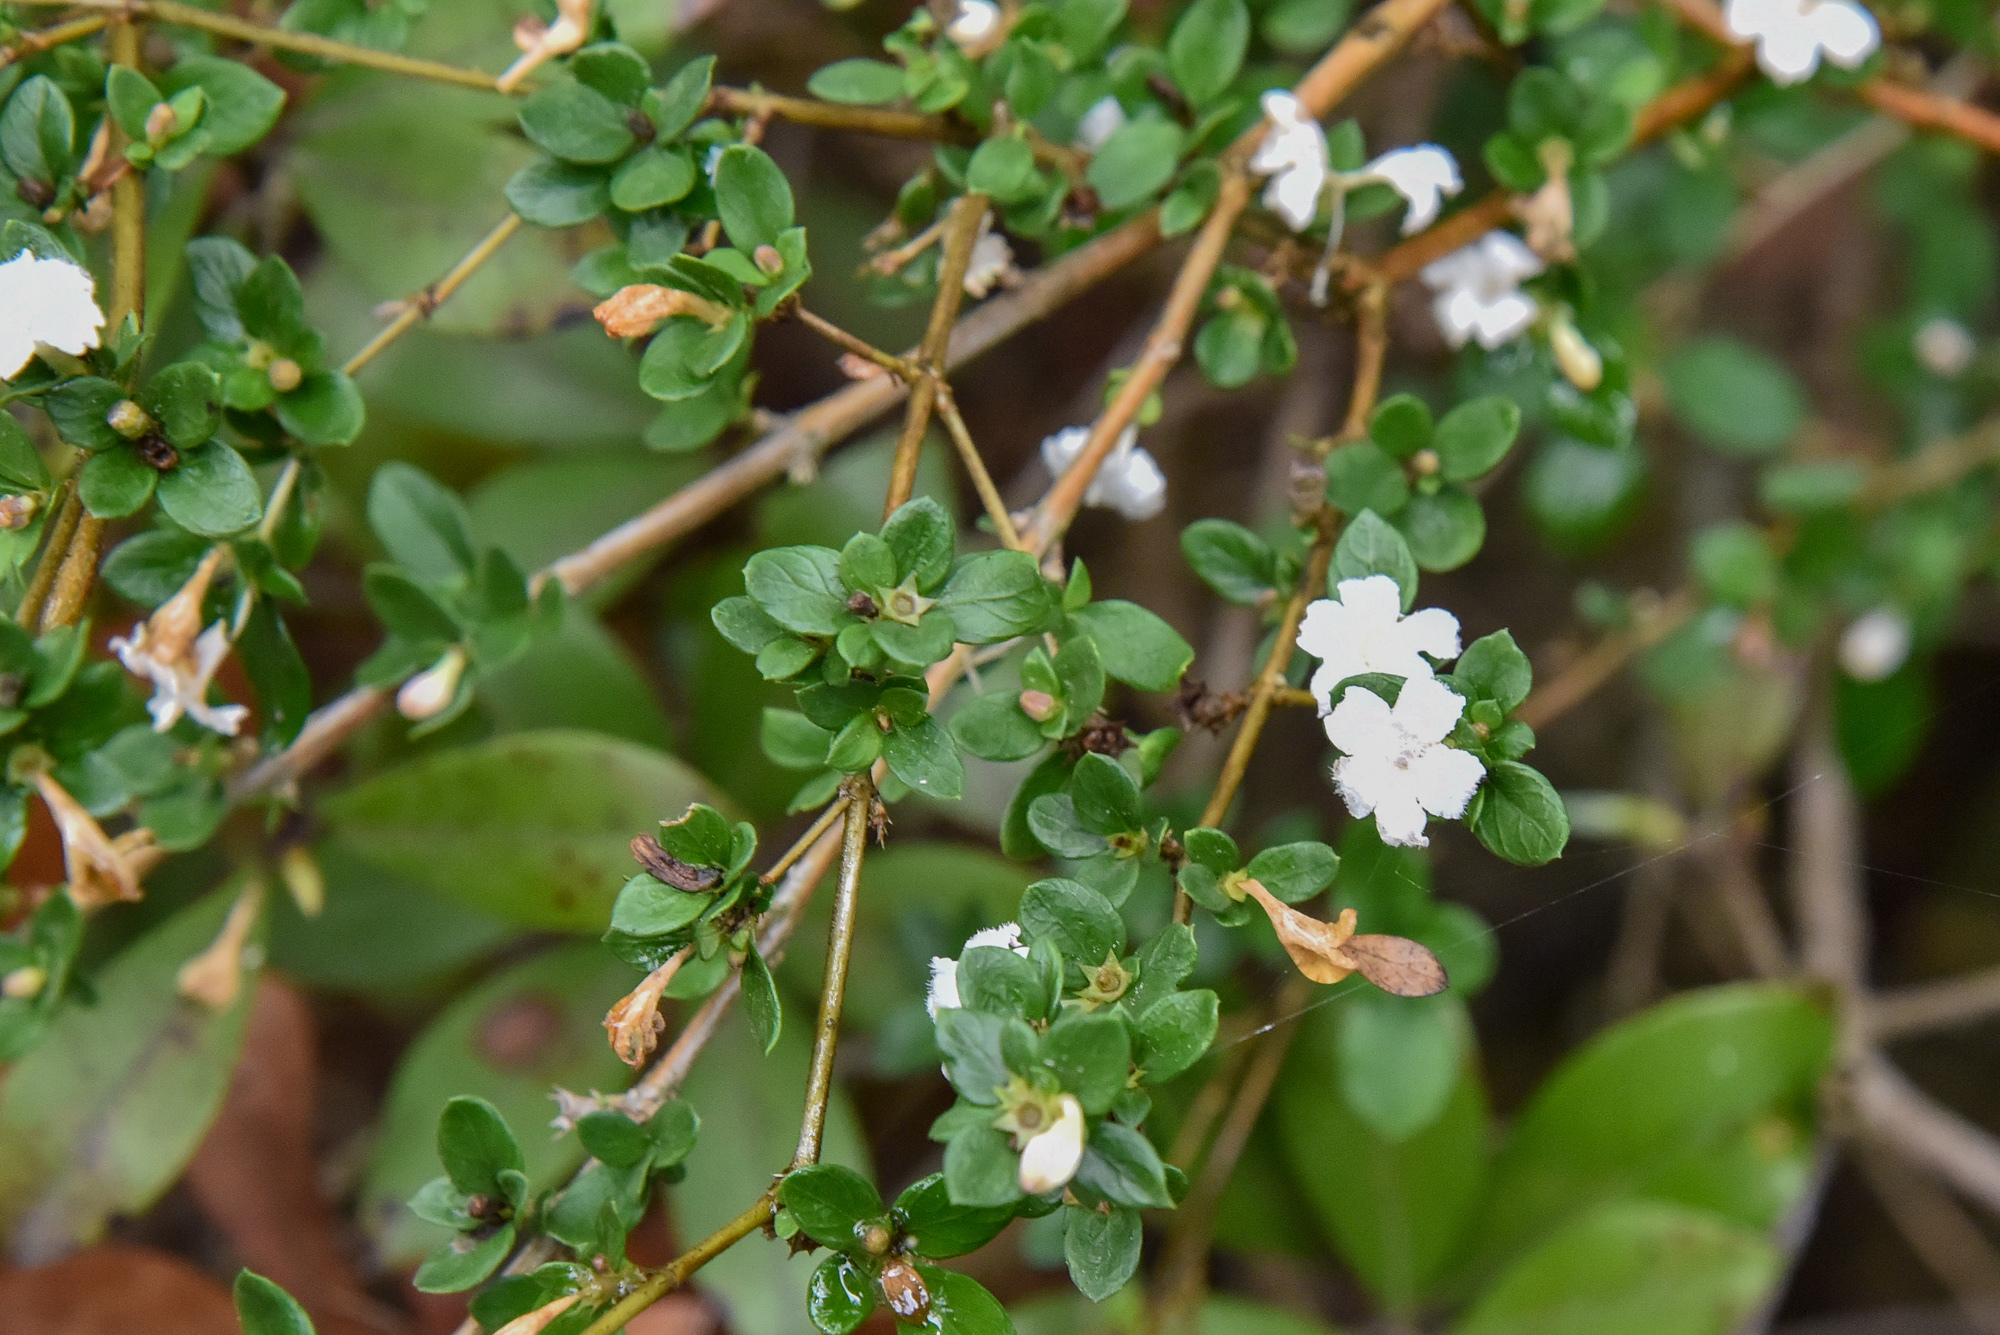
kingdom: Plantae
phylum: Tracheophyta
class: Magnoliopsida
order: Gentianales
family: Rubiaceae
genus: Buchozia
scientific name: Buchozia japonica
